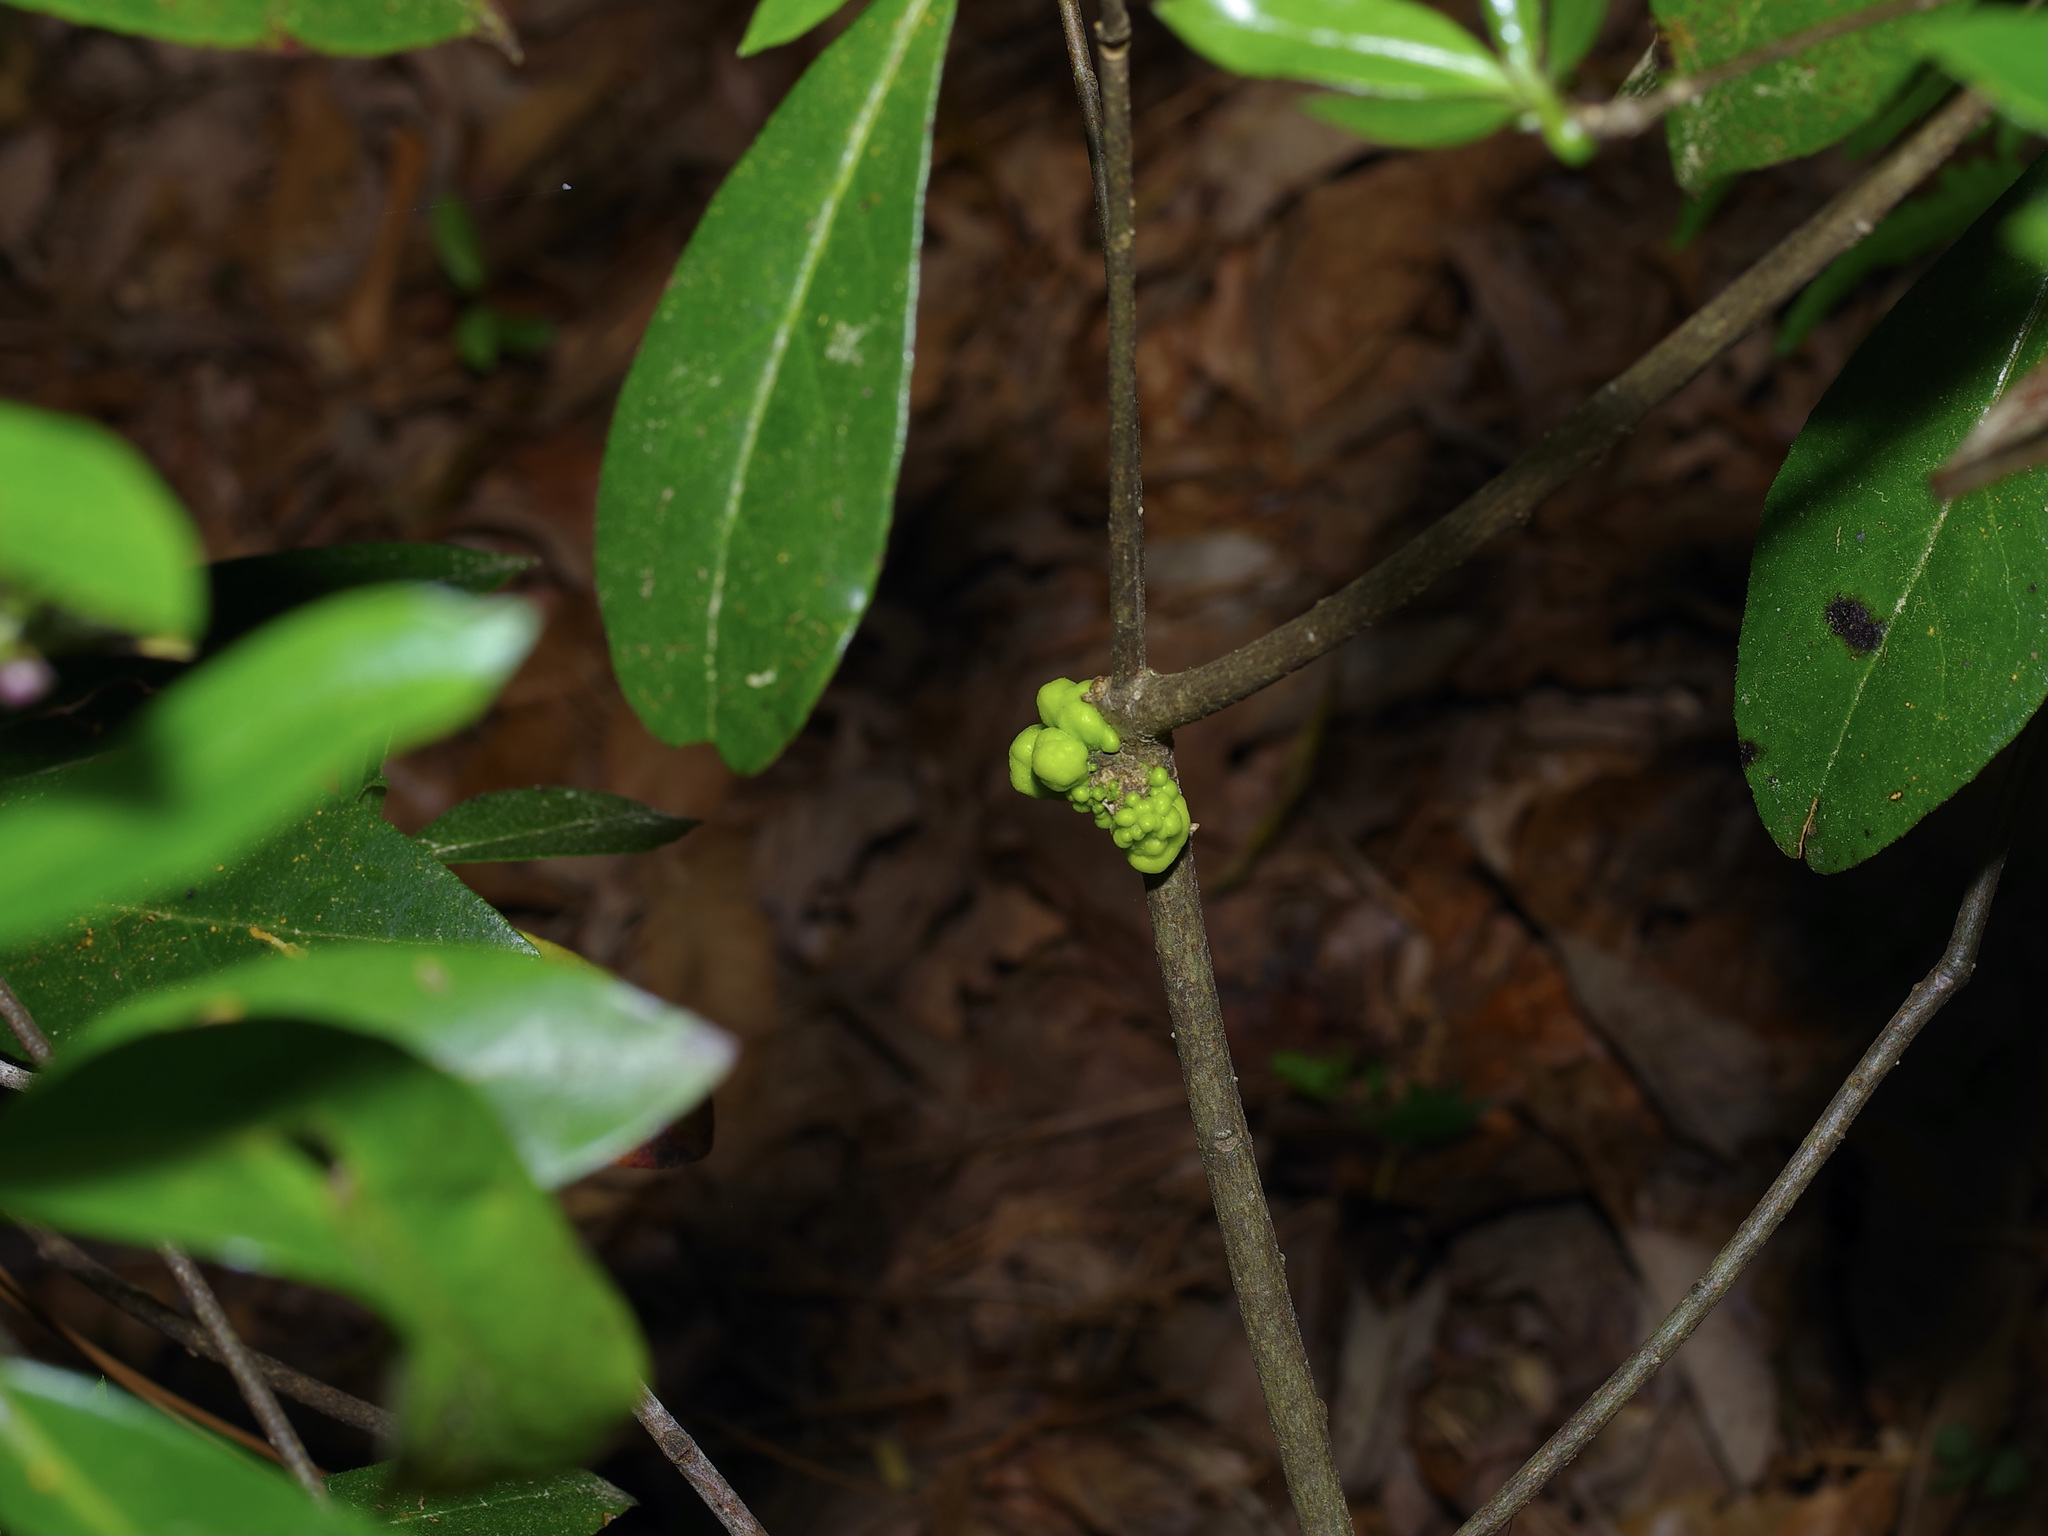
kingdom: Fungi
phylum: Basidiomycota
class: Exobasidiomycetes
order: Exobasidiales
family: Exobasidiaceae
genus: Exobasidium
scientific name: Exobasidium symploci
